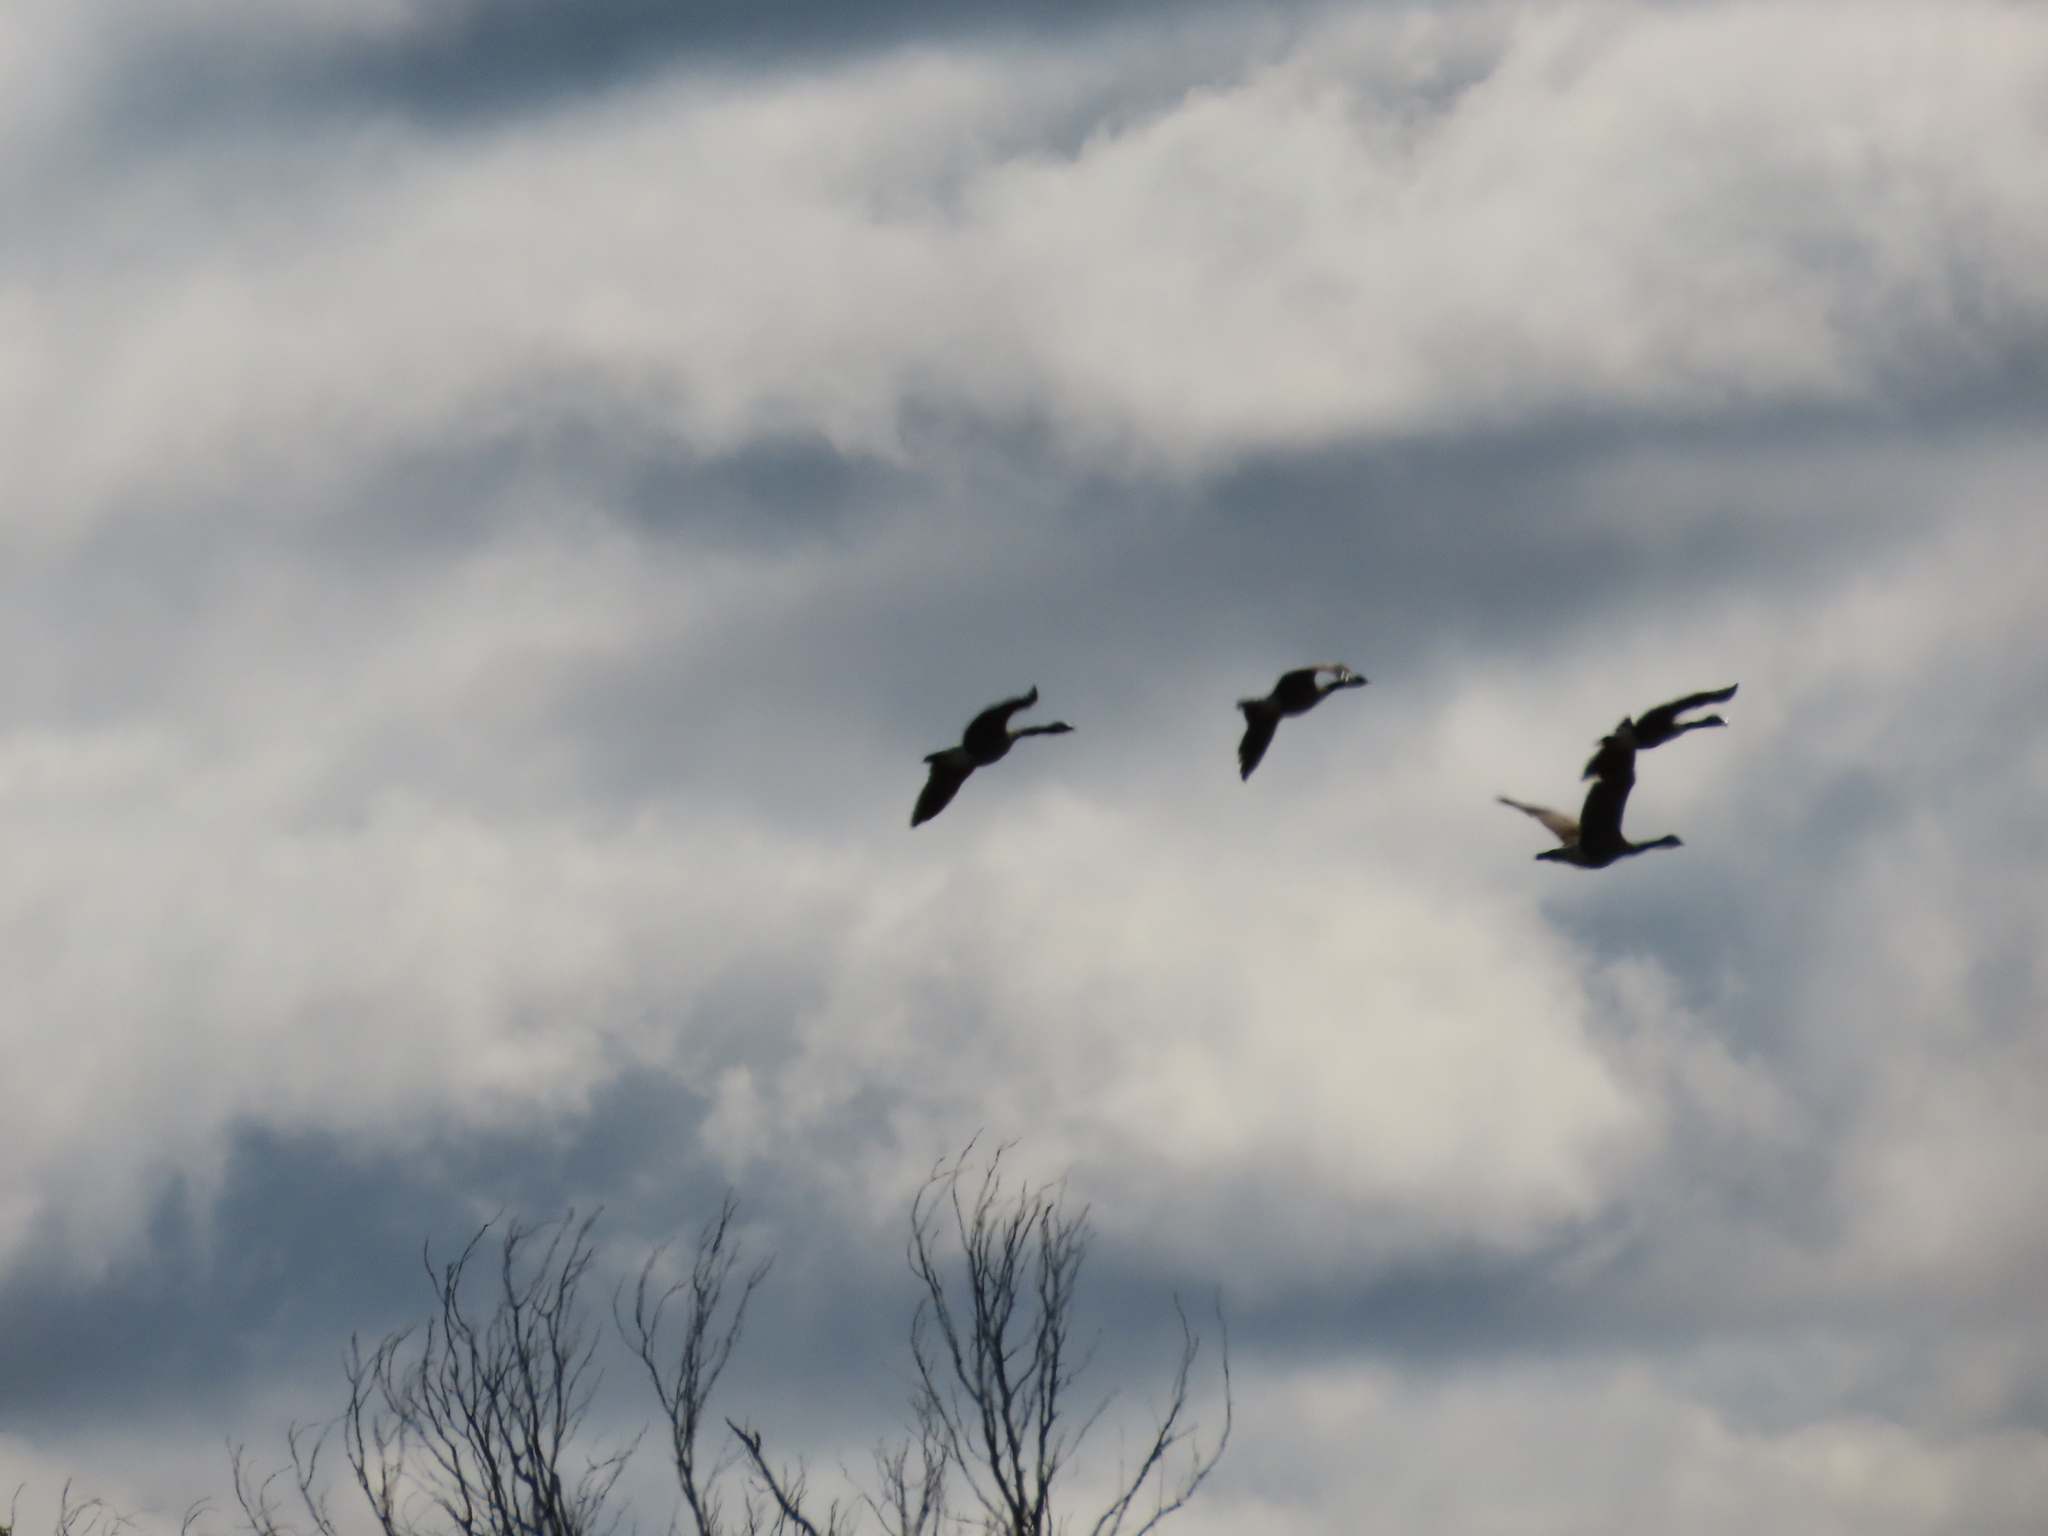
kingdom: Animalia
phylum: Chordata
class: Aves
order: Anseriformes
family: Anatidae
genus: Branta
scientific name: Branta canadensis
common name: Canada goose
